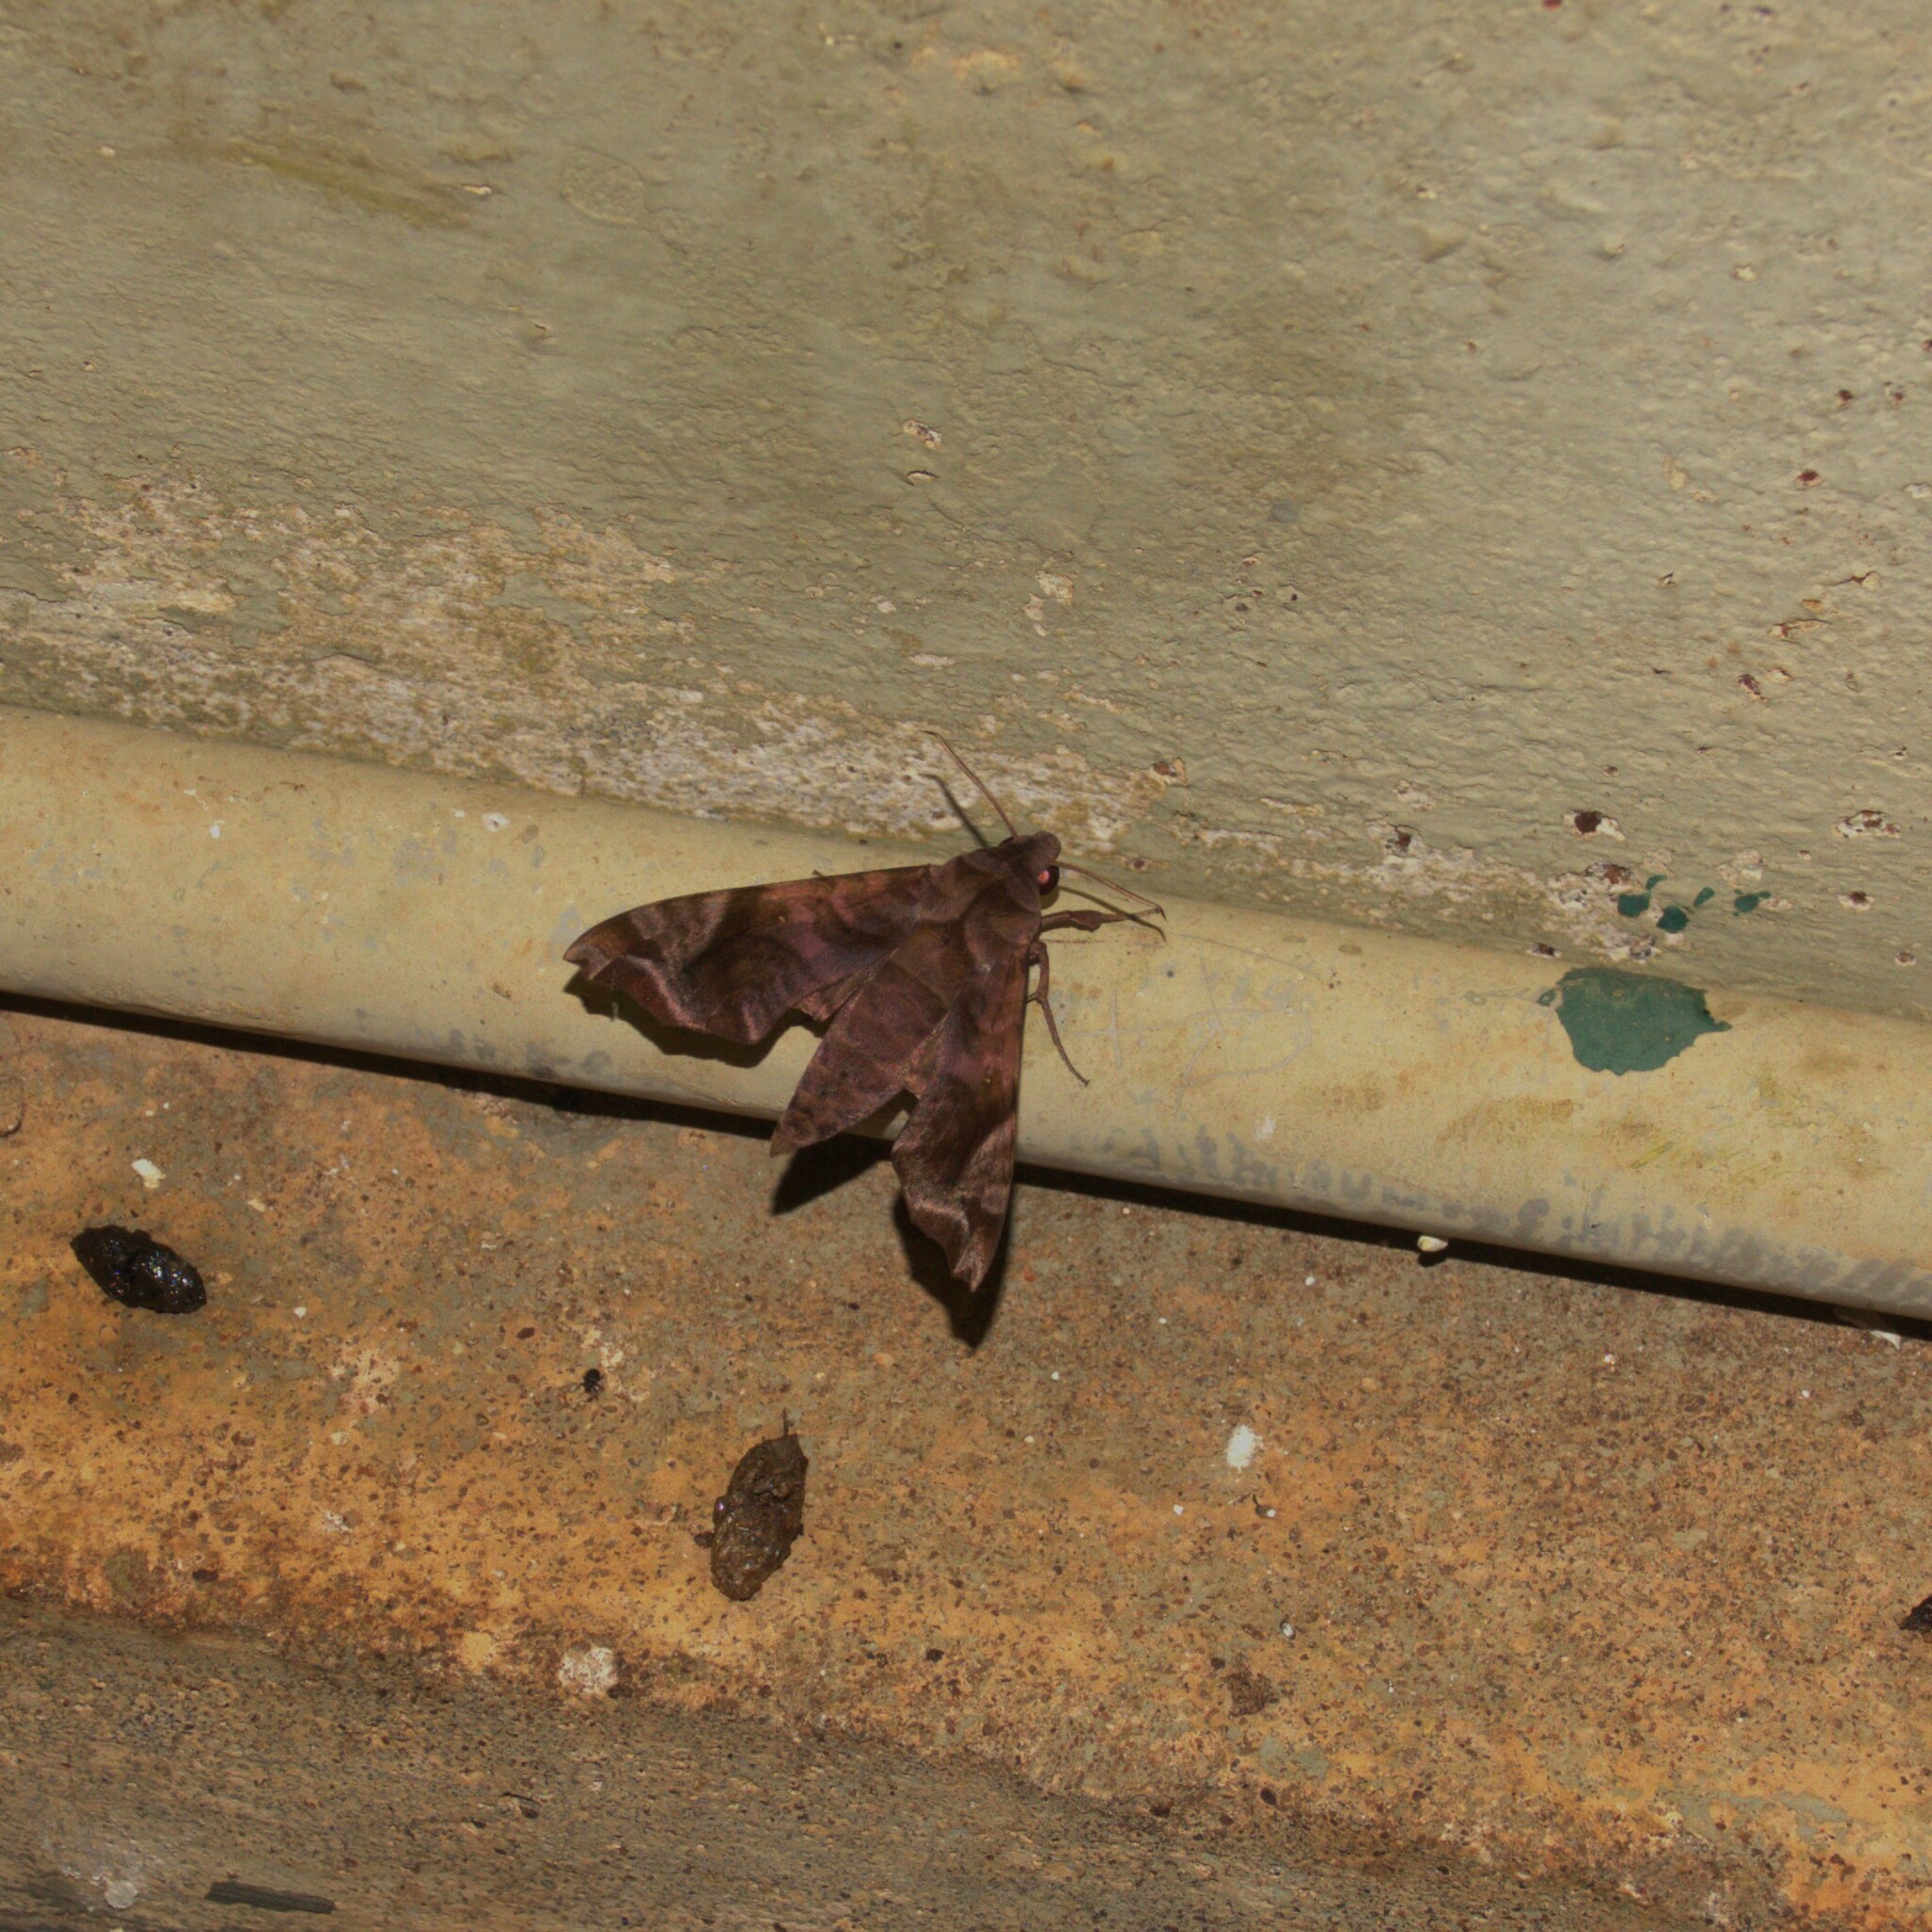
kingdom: Animalia
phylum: Arthropoda
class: Insecta
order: Lepidoptera
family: Sphingidae
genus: Acosmeryx
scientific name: Acosmeryx anceus
